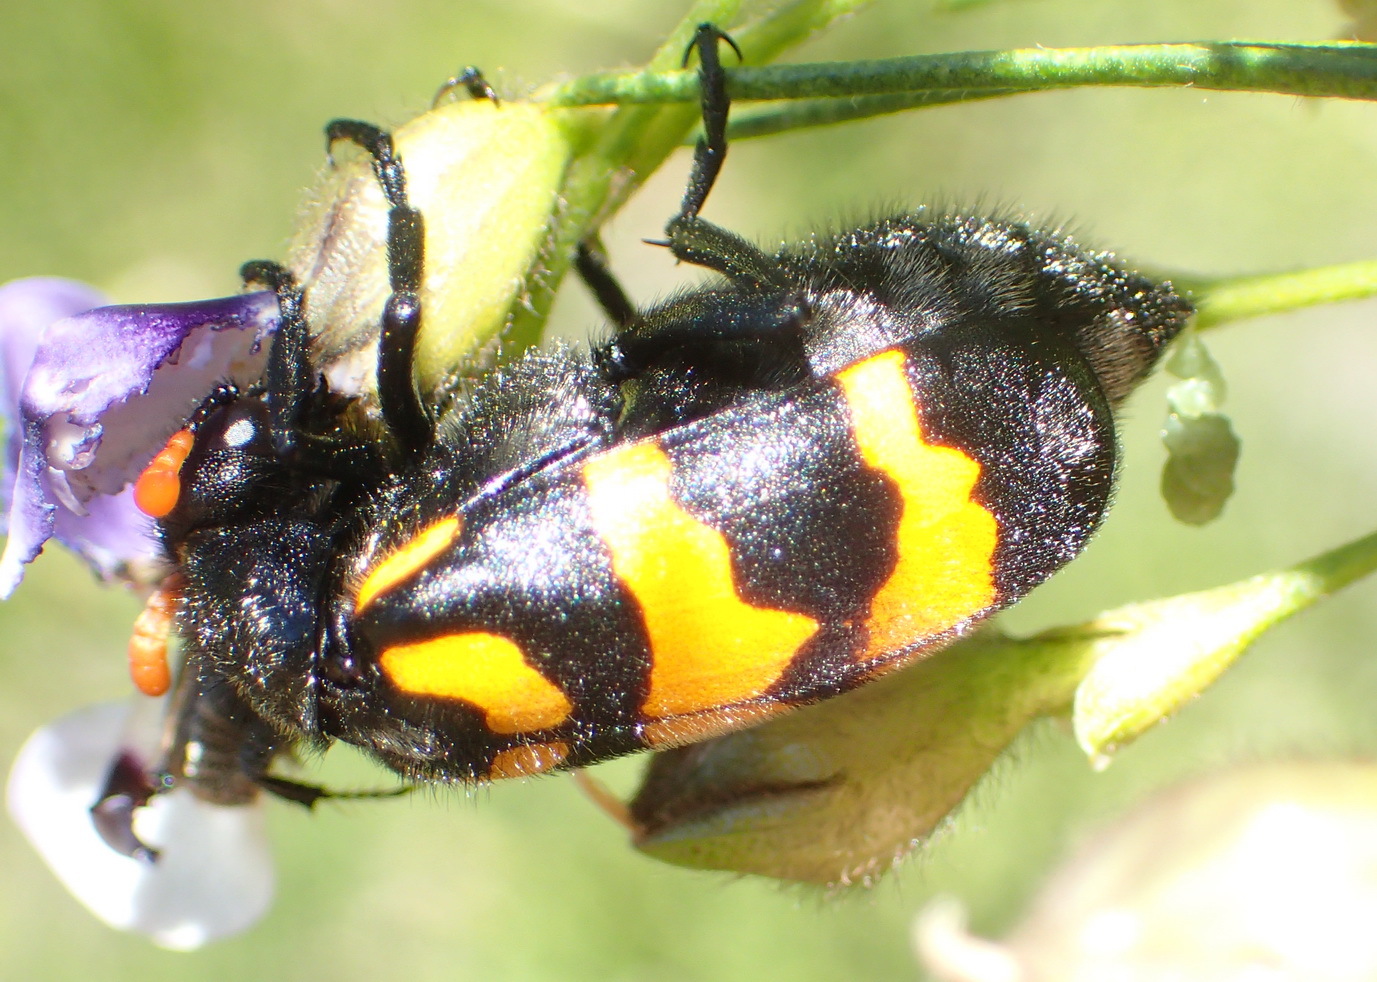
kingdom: Animalia
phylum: Arthropoda
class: Insecta
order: Coleoptera
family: Meloidae
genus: Meloe
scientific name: Meloe lunata
